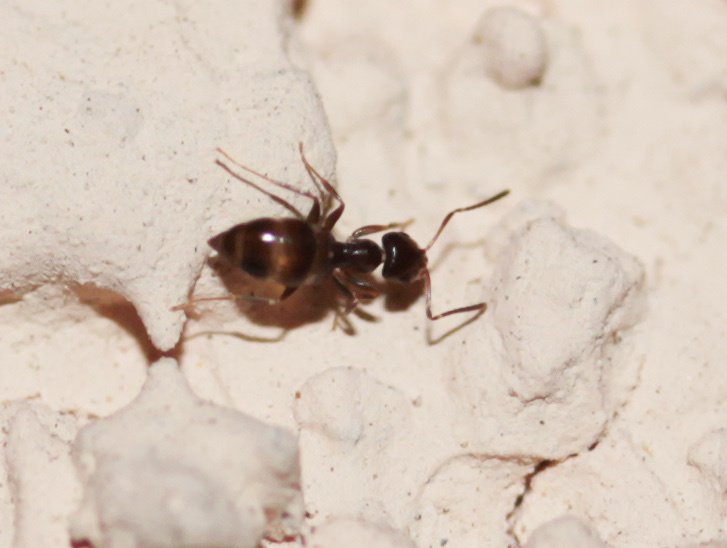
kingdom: Animalia
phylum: Arthropoda
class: Insecta
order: Hymenoptera
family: Formicidae
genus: Brachymyrmex
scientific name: Brachymyrmex patagonicus
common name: Dark rover ant
